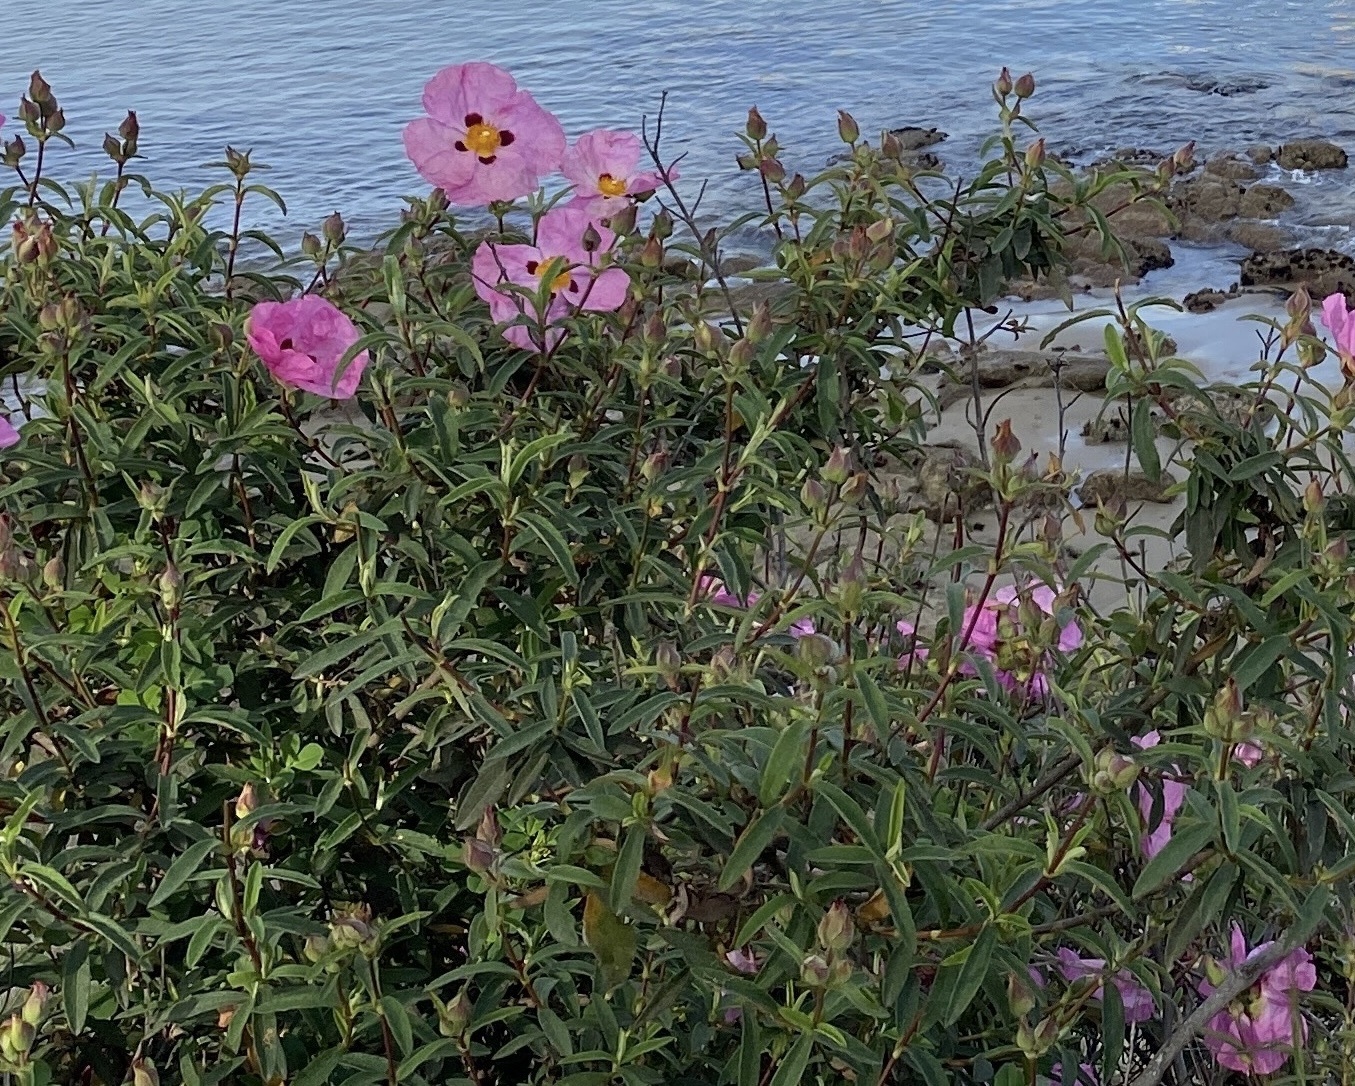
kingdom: Plantae
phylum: Tracheophyta
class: Magnoliopsida
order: Malvales
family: Cistaceae
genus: Cistus
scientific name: Cistus purpureus
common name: Purple cistus
